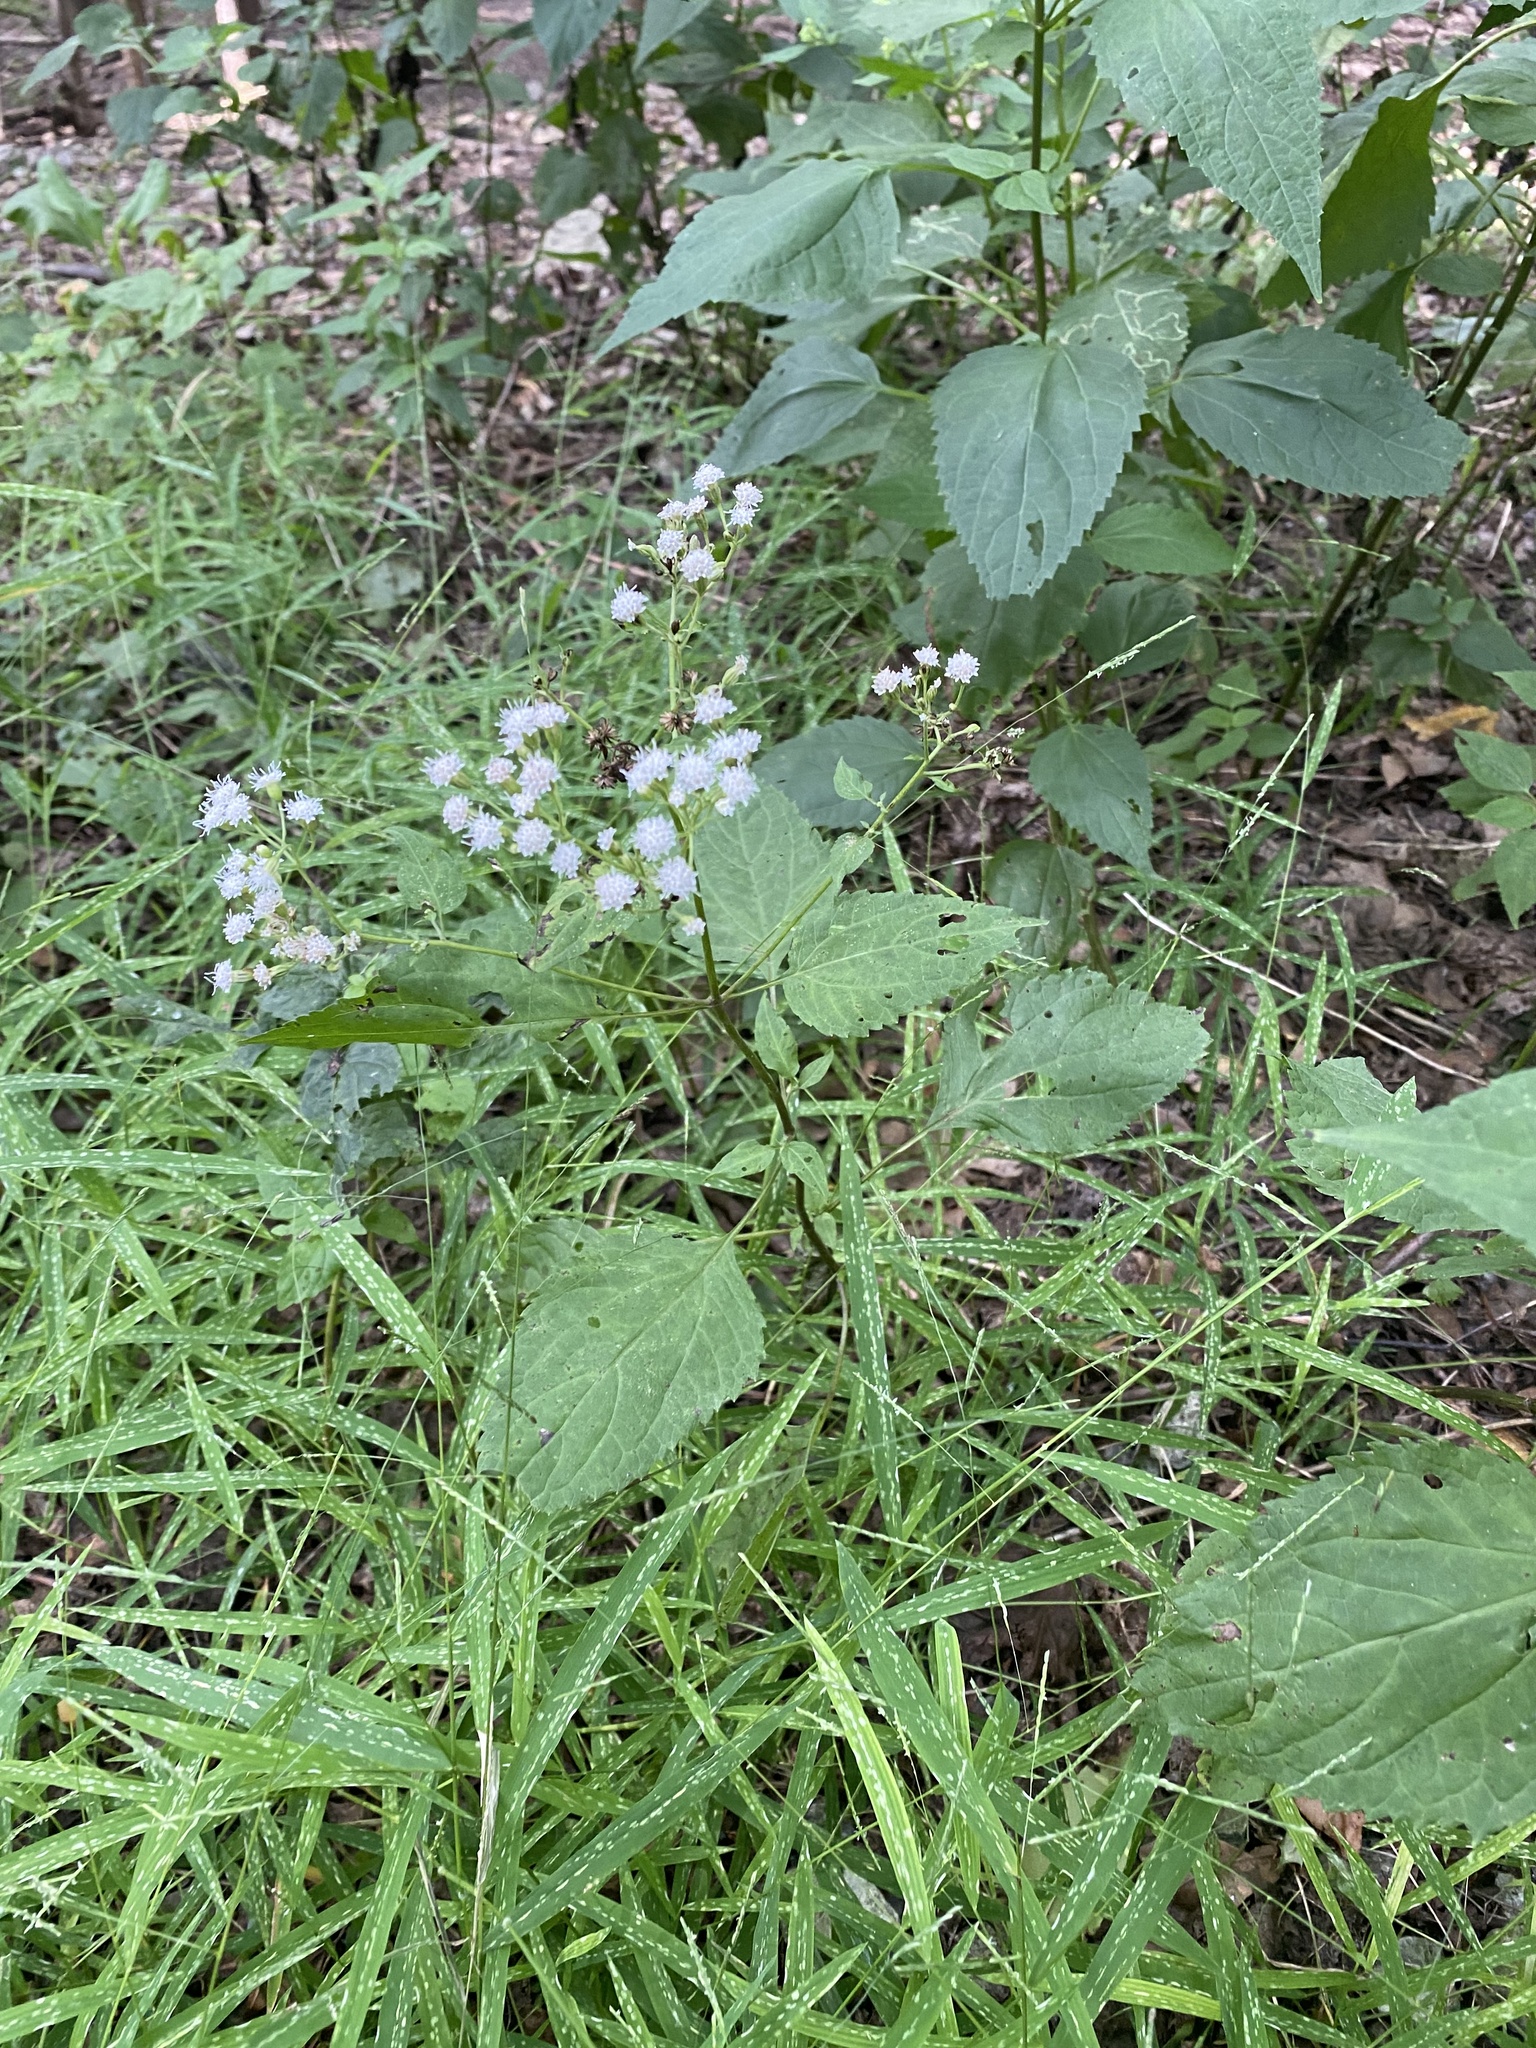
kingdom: Plantae
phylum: Tracheophyta
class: Magnoliopsida
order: Asterales
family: Asteraceae
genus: Ageratina
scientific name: Ageratina altissima
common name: White snakeroot
